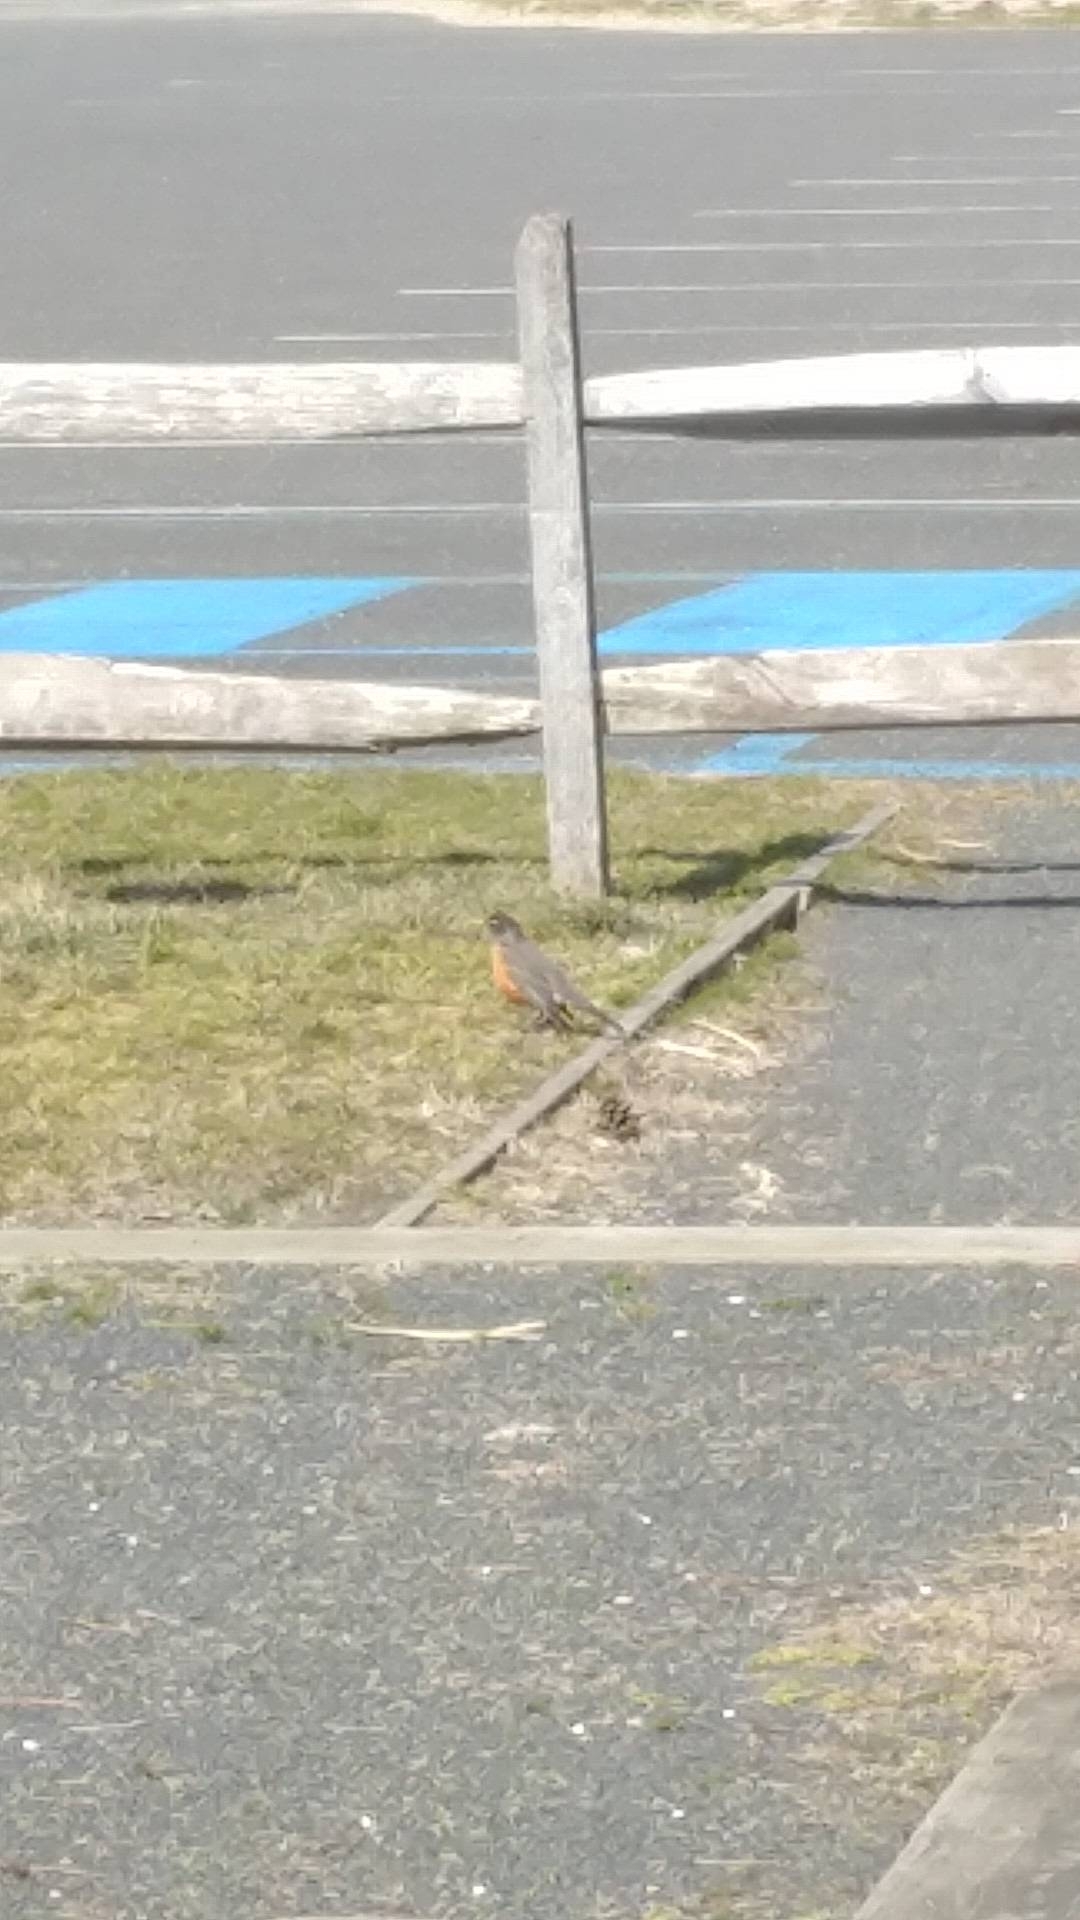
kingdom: Animalia
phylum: Chordata
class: Aves
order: Passeriformes
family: Turdidae
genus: Turdus
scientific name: Turdus migratorius
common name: American robin
